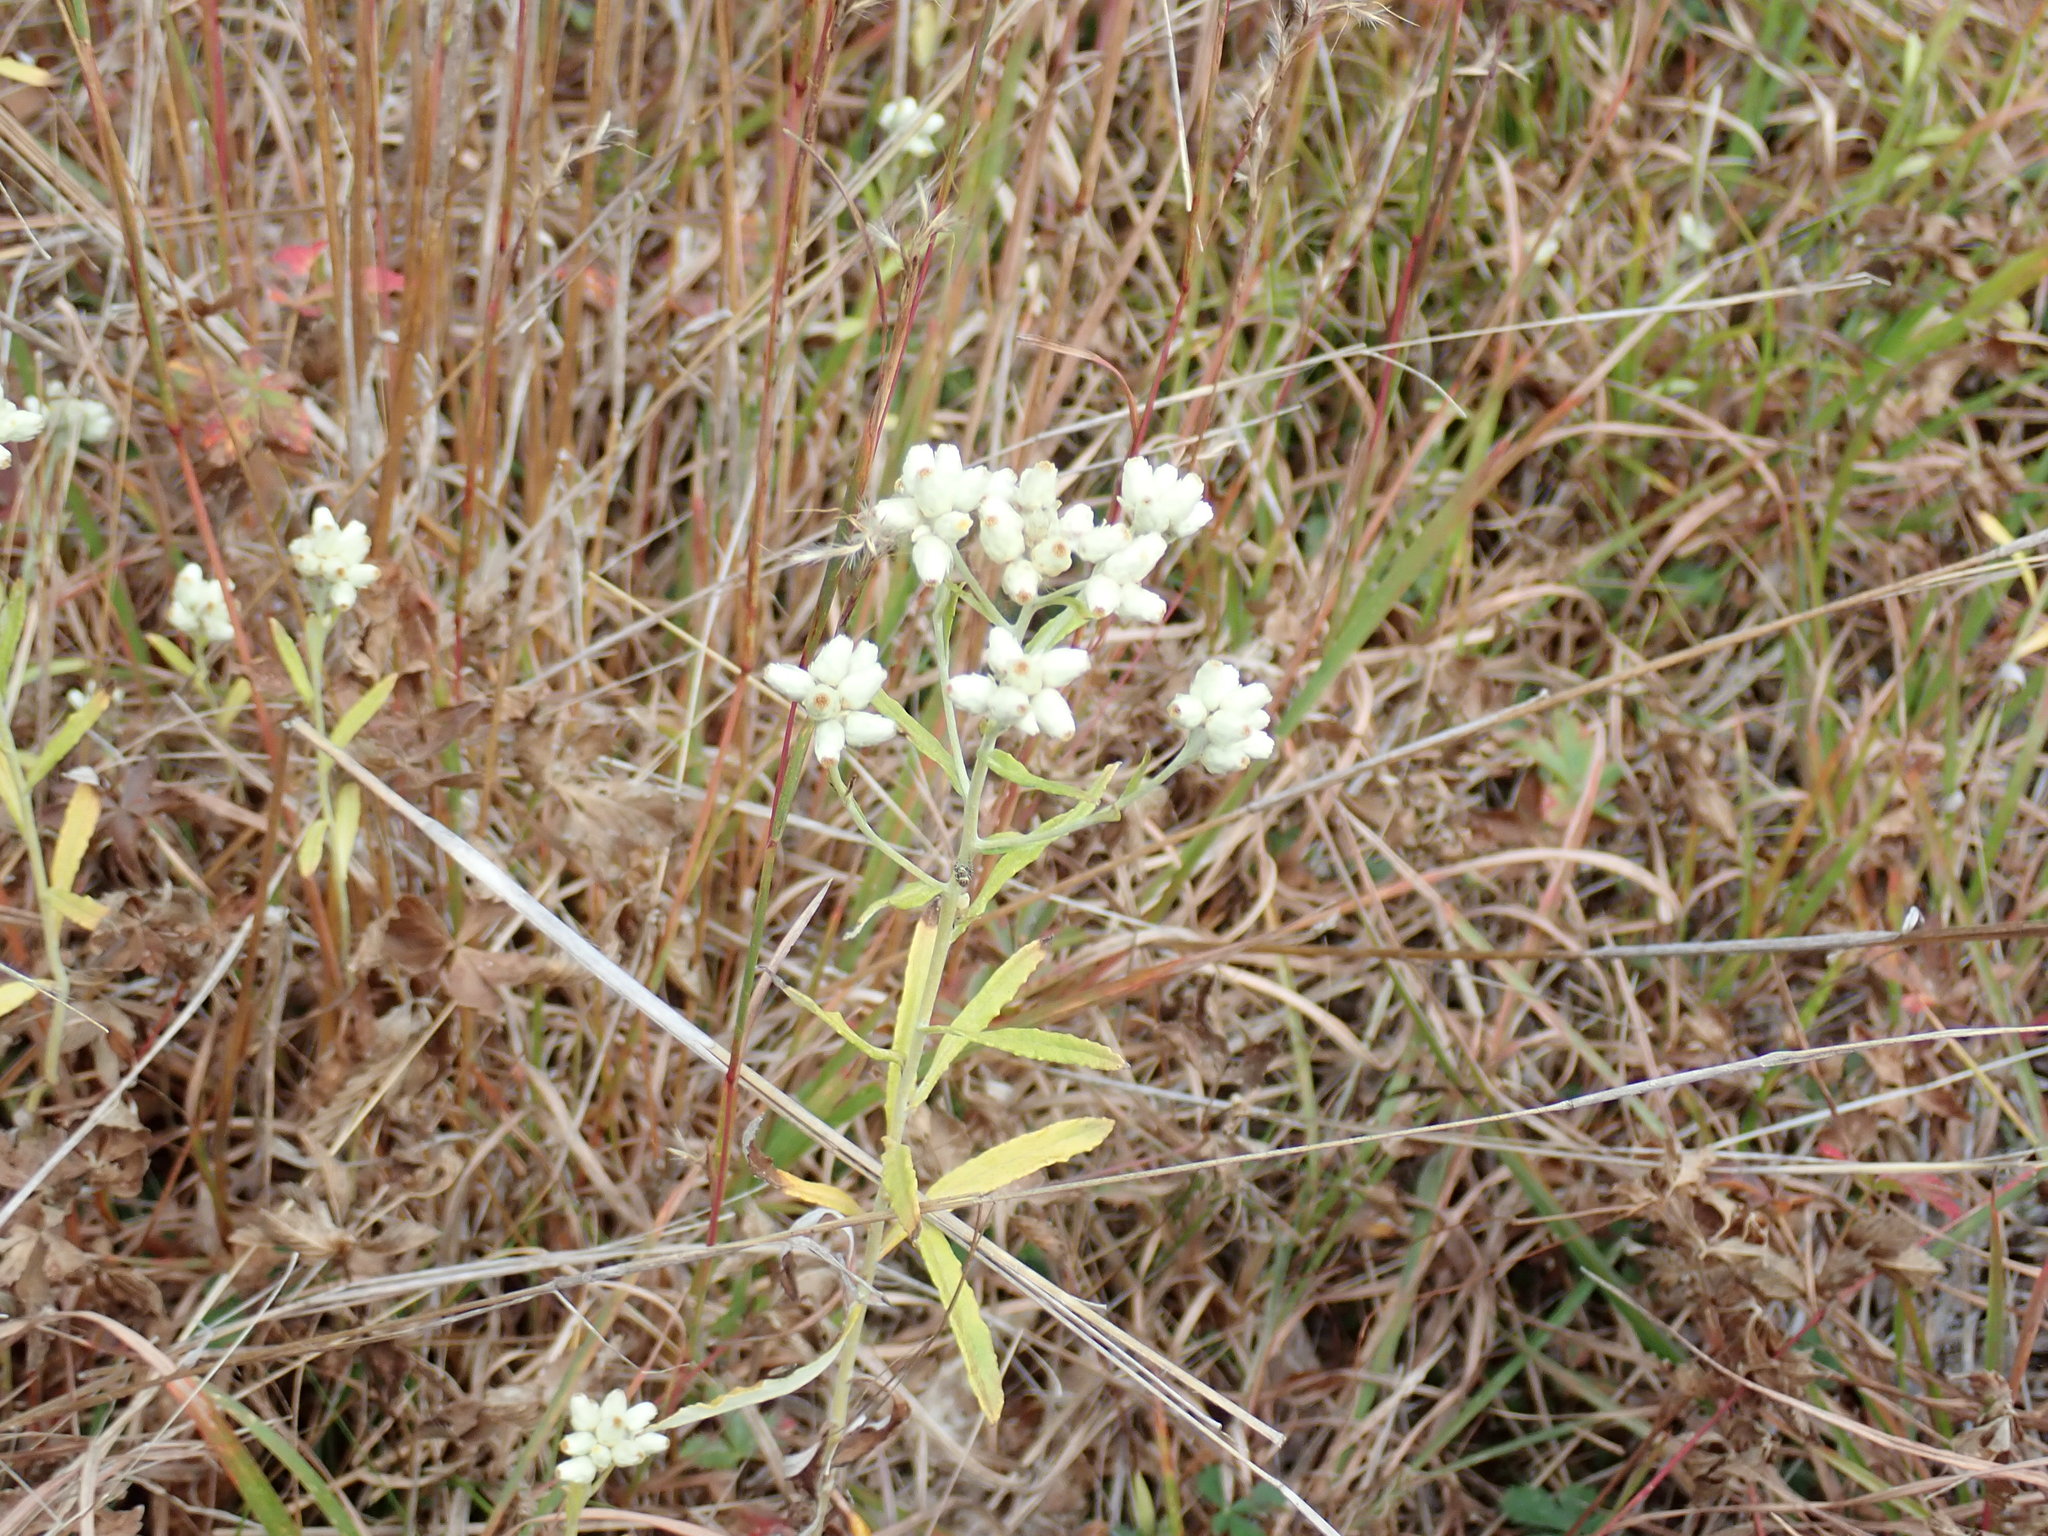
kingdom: Plantae
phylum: Tracheophyta
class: Magnoliopsida
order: Asterales
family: Asteraceae
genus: Pseudognaphalium
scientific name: Pseudognaphalium obtusifolium
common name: Eastern rabbit-tobacco
